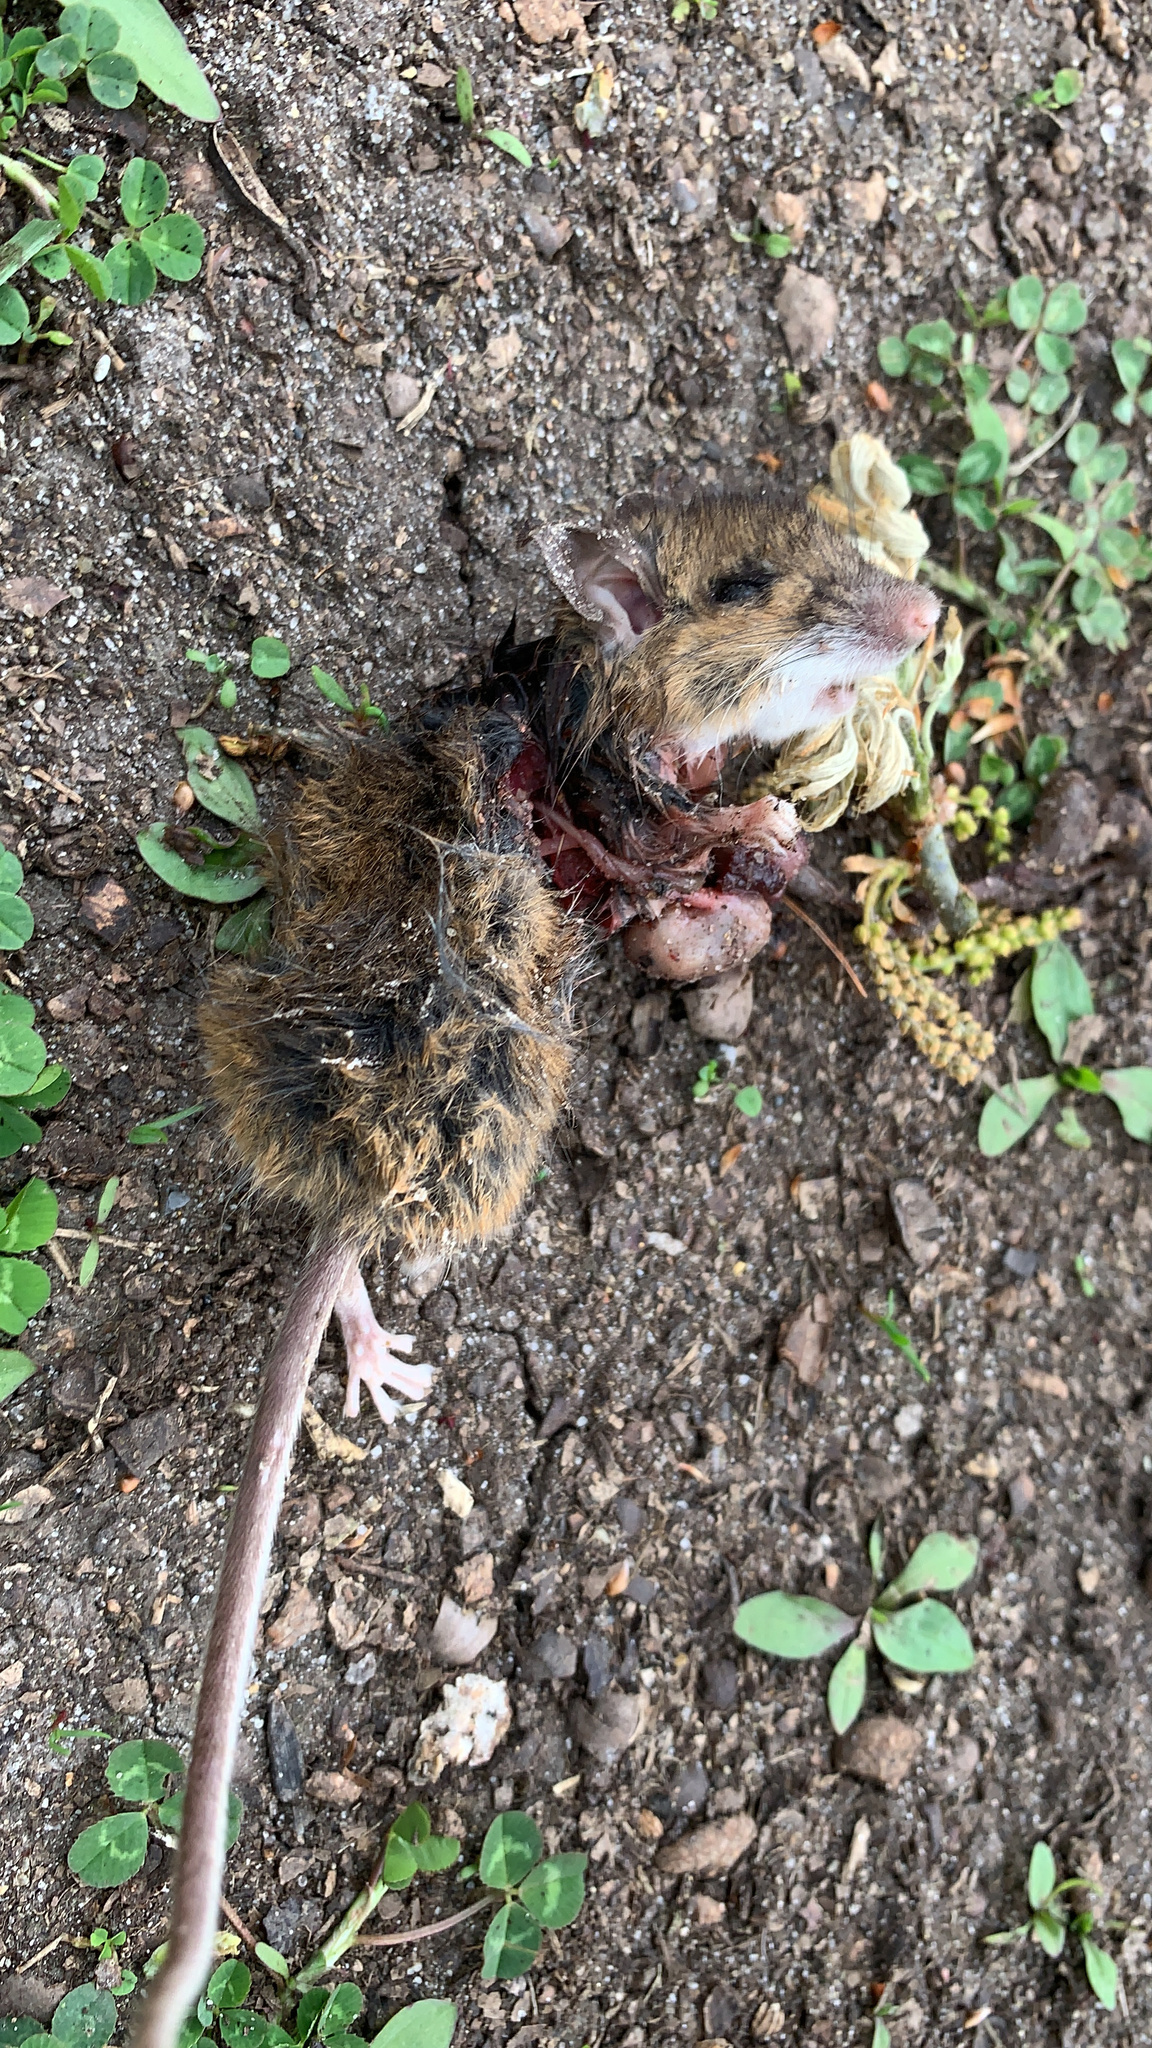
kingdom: Animalia
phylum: Chordata
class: Mammalia
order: Rodentia
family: Muridae
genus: Mus
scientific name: Mus musculus
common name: House mouse
